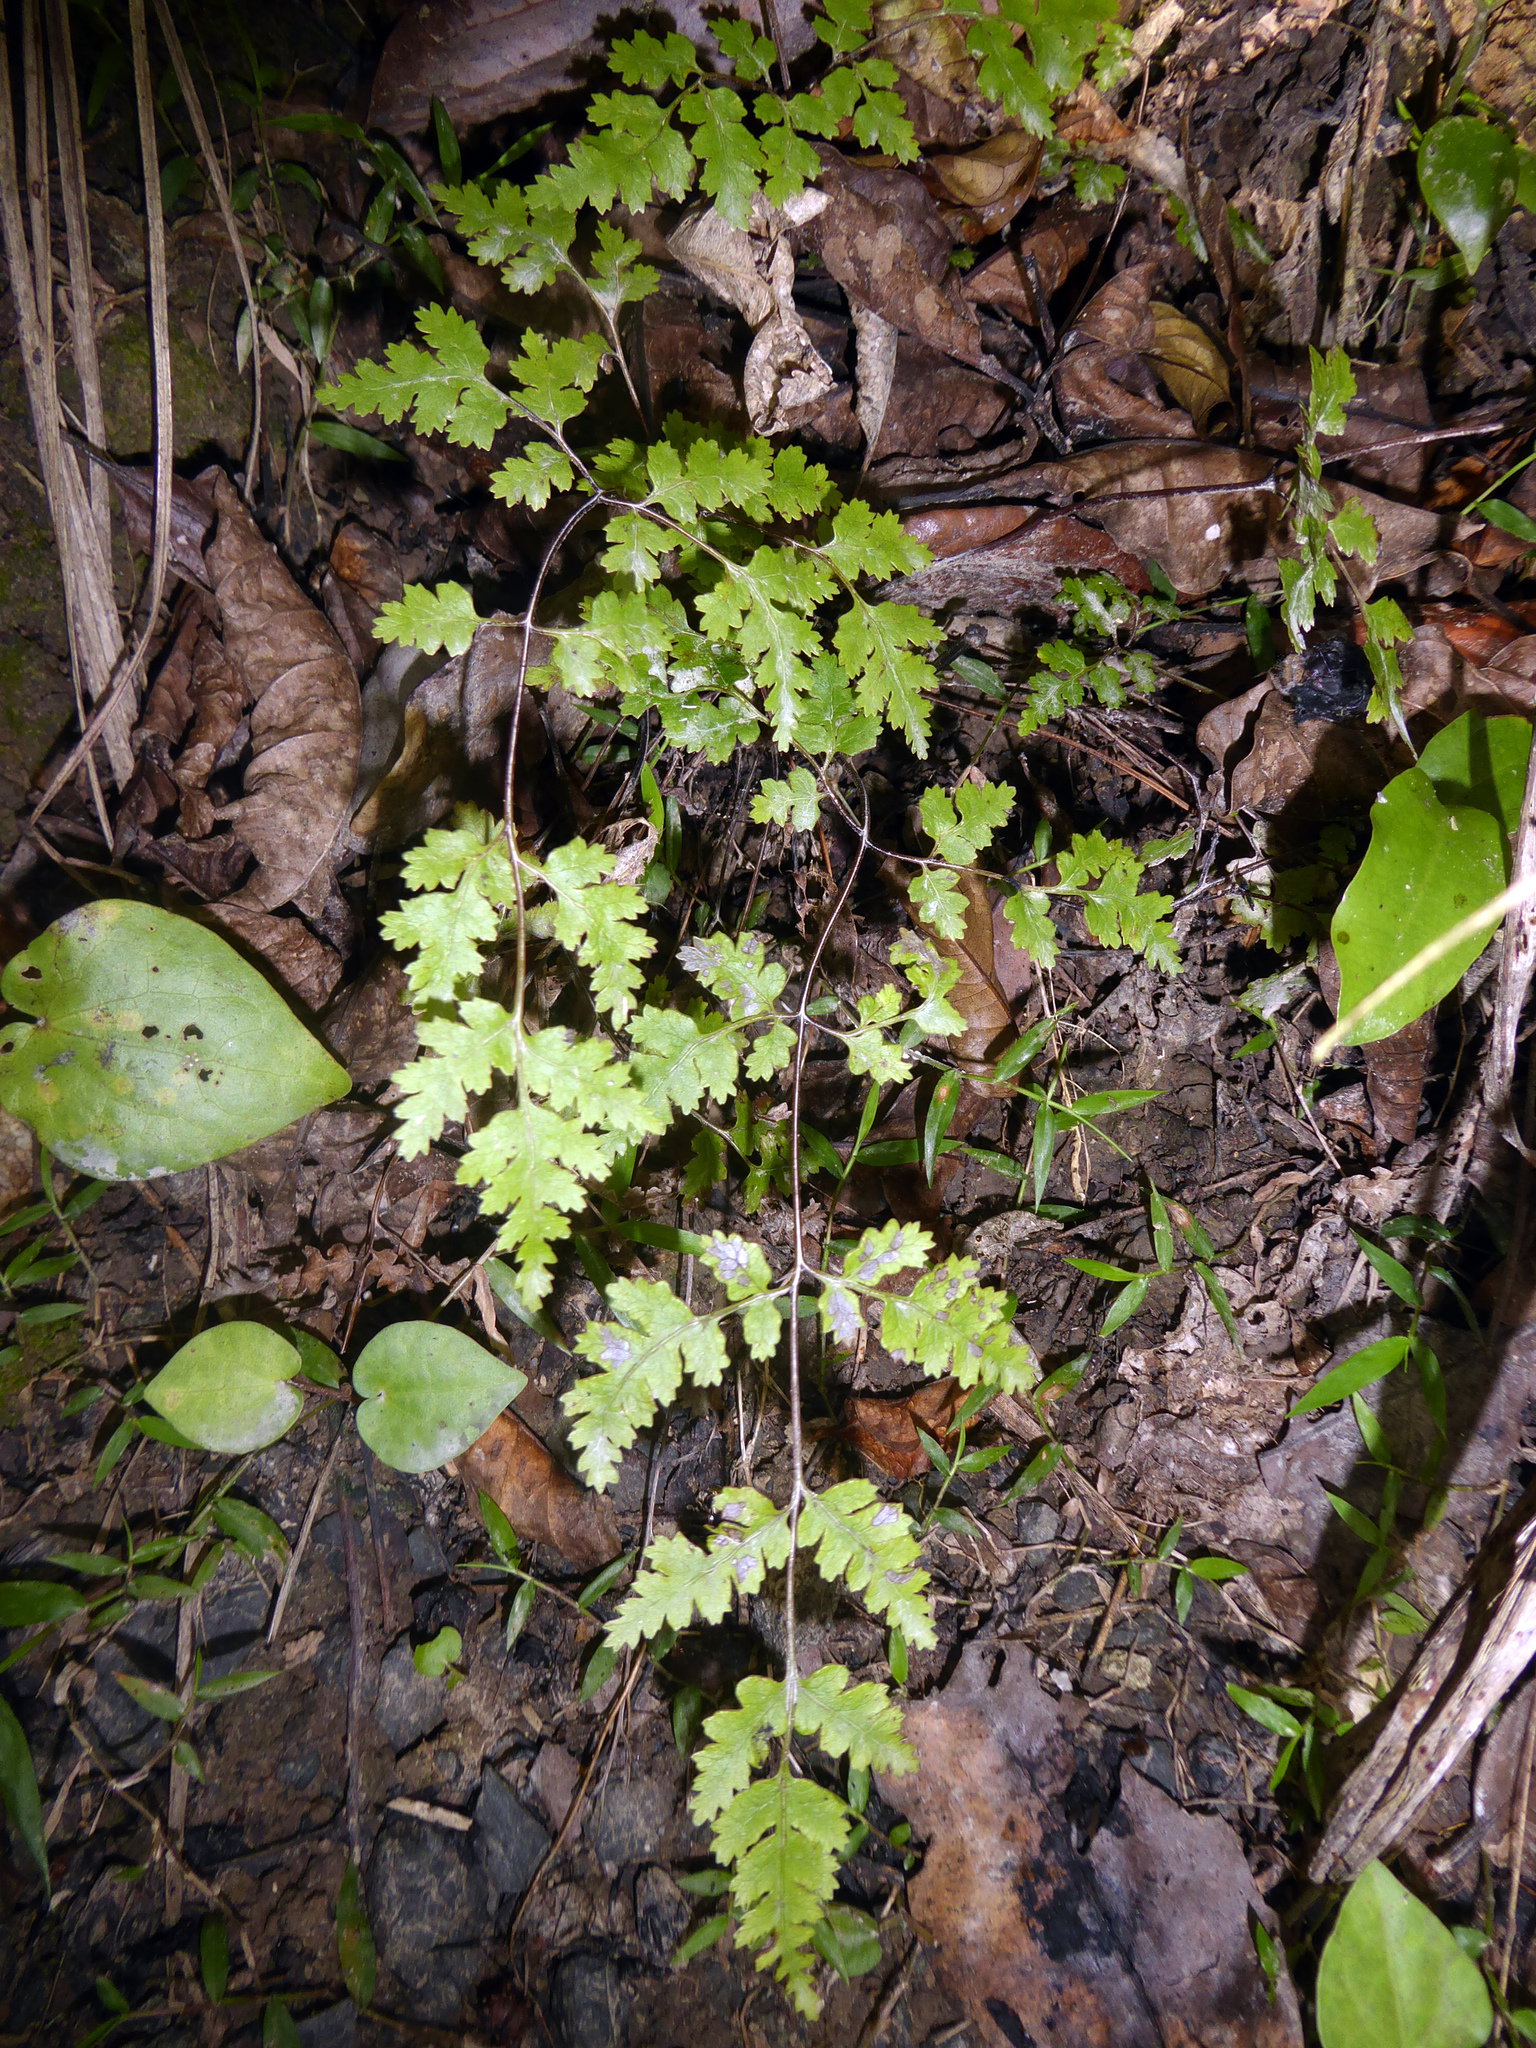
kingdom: Plantae
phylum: Tracheophyta
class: Polypodiopsida
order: Polypodiales
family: Pteridaceae
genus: Pteris
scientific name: Pteris saxatilis
